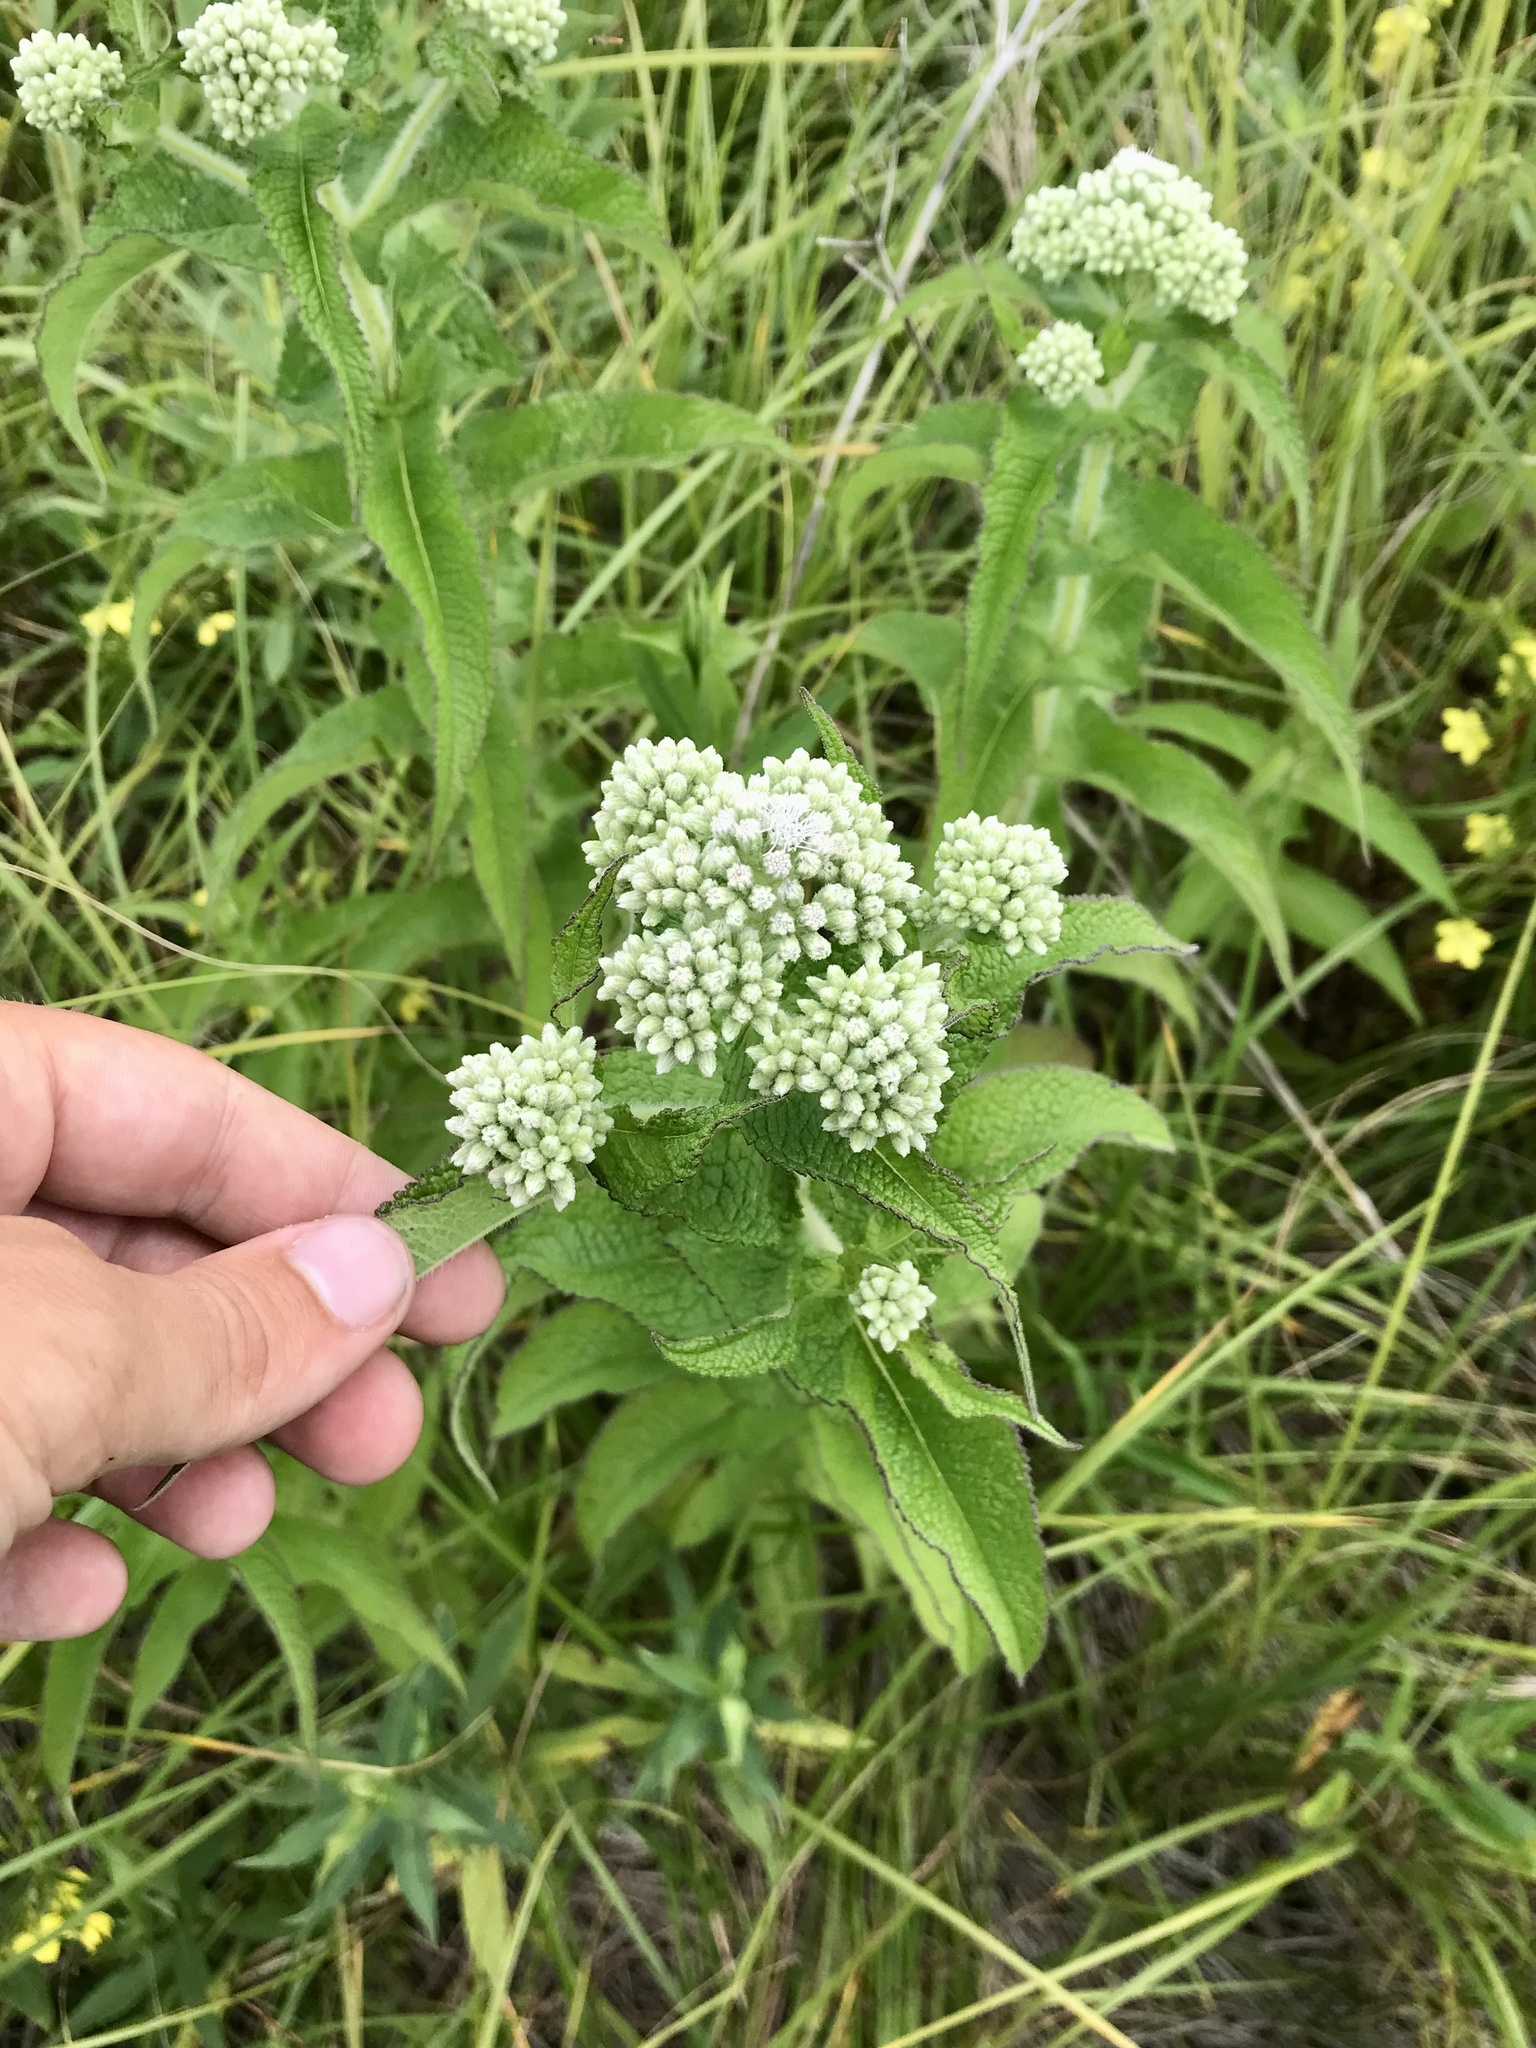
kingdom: Plantae
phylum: Tracheophyta
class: Magnoliopsida
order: Asterales
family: Asteraceae
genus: Eupatorium
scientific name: Eupatorium perfoliatum
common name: Boneset
